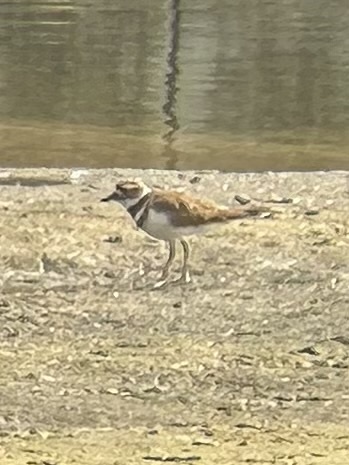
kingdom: Animalia
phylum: Chordata
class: Aves
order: Charadriiformes
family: Charadriidae
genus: Charadrius
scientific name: Charadrius vociferus
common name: Killdeer
